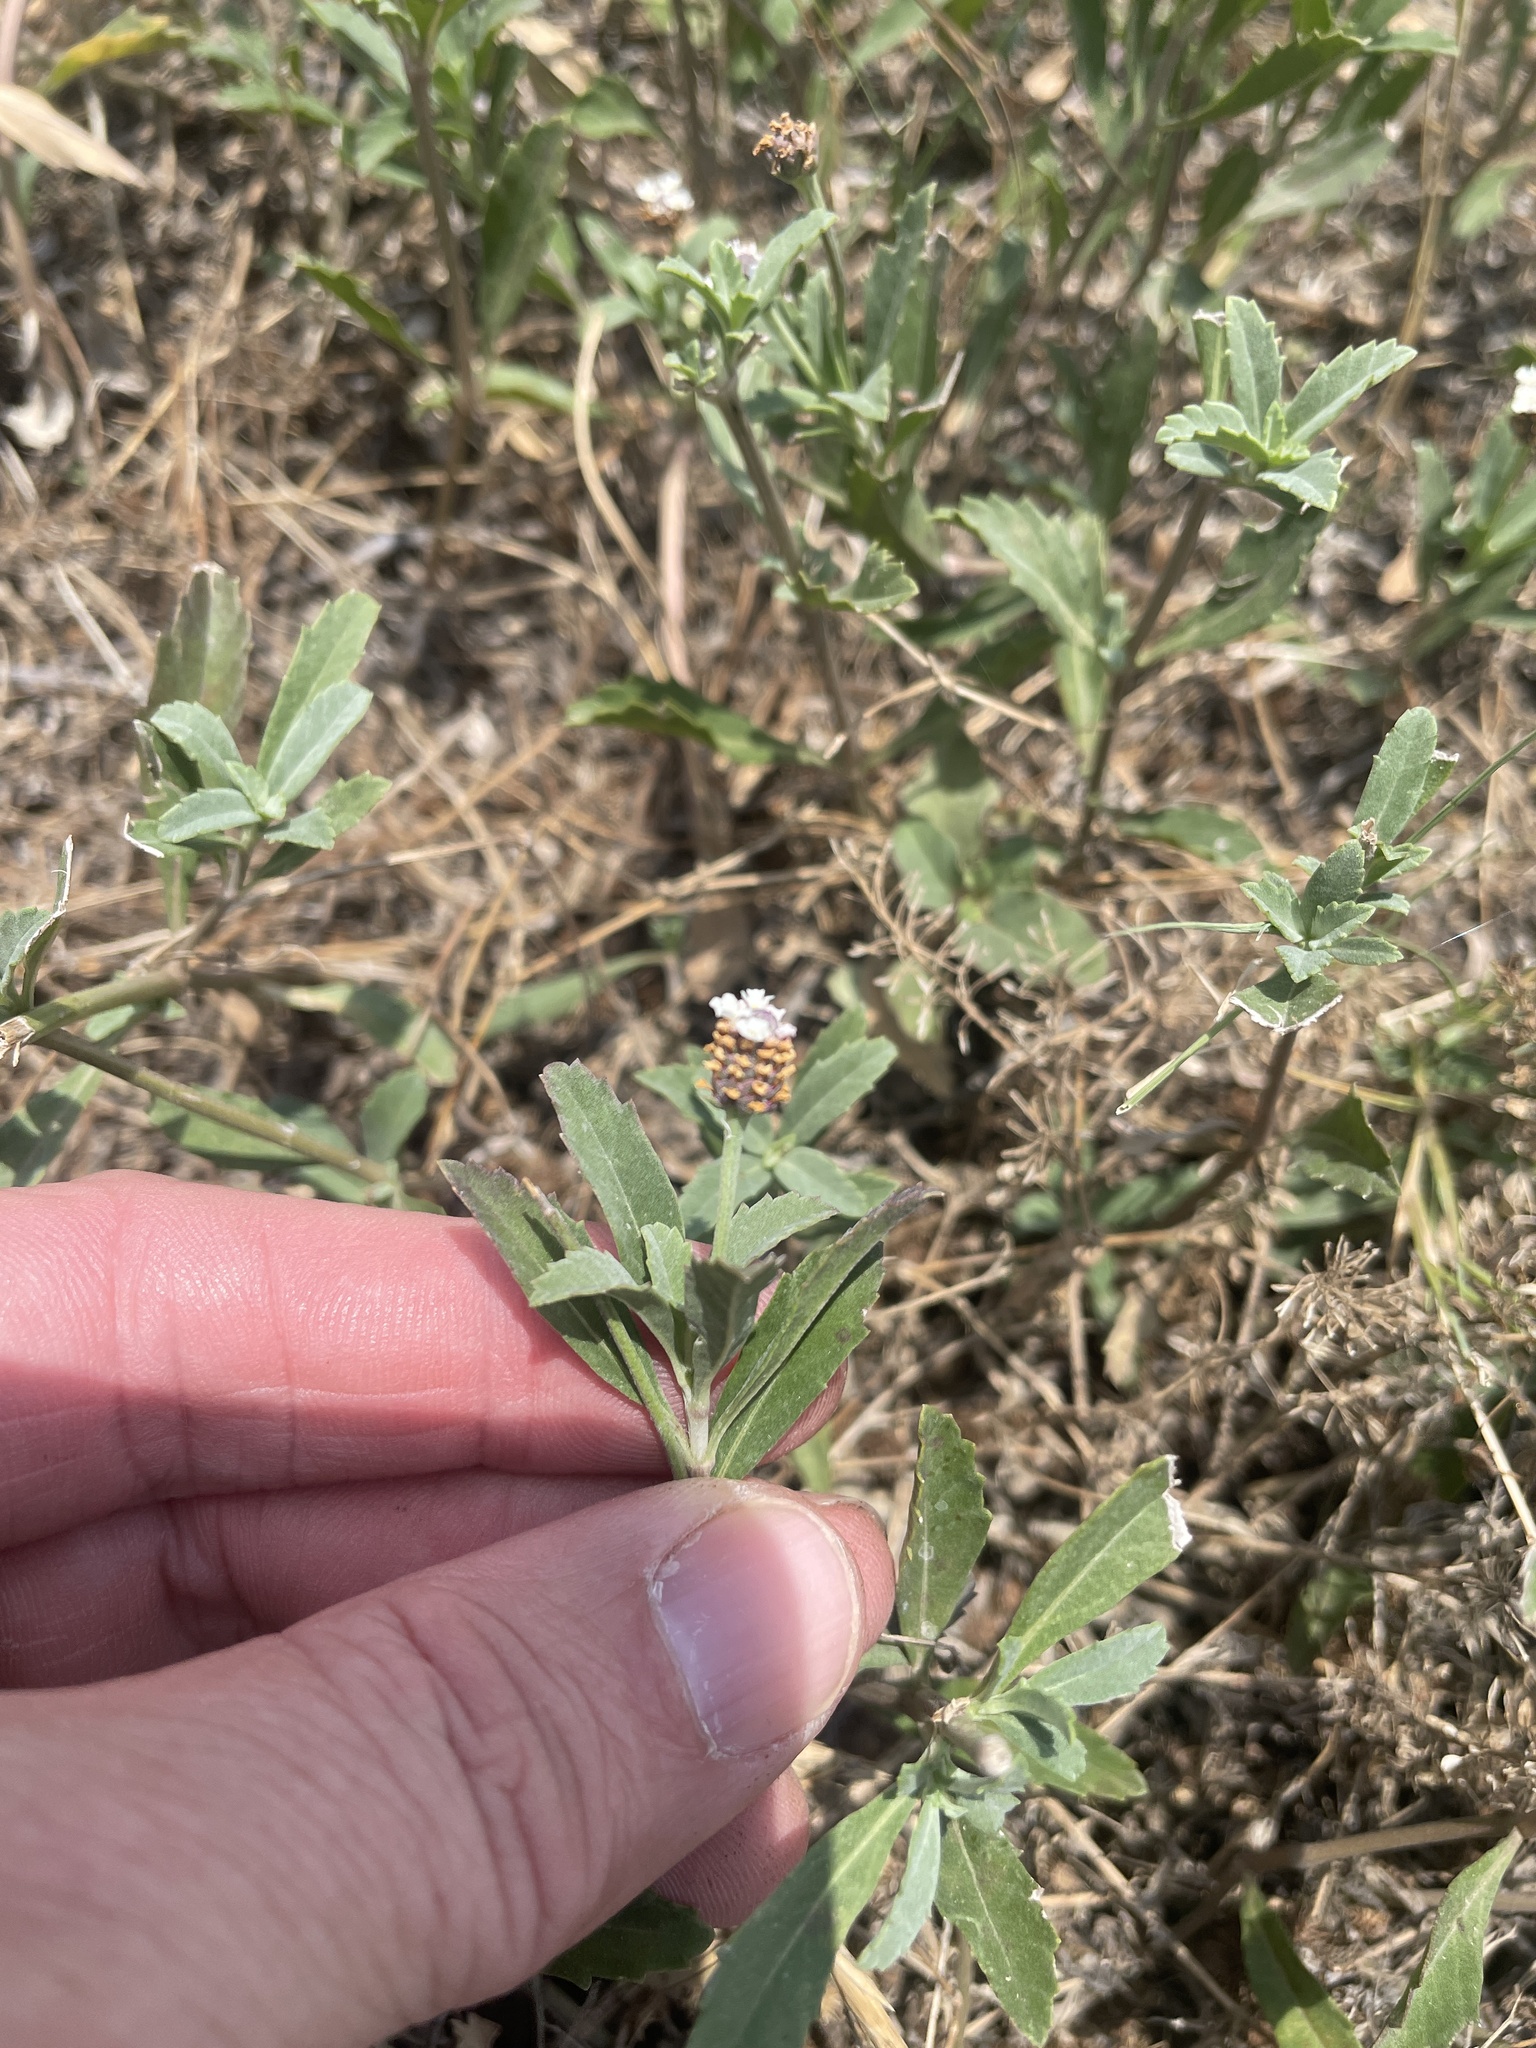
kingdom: Plantae
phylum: Tracheophyta
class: Magnoliopsida
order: Lamiales
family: Verbenaceae
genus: Phyla
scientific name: Phyla nodiflora
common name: Frogfruit
